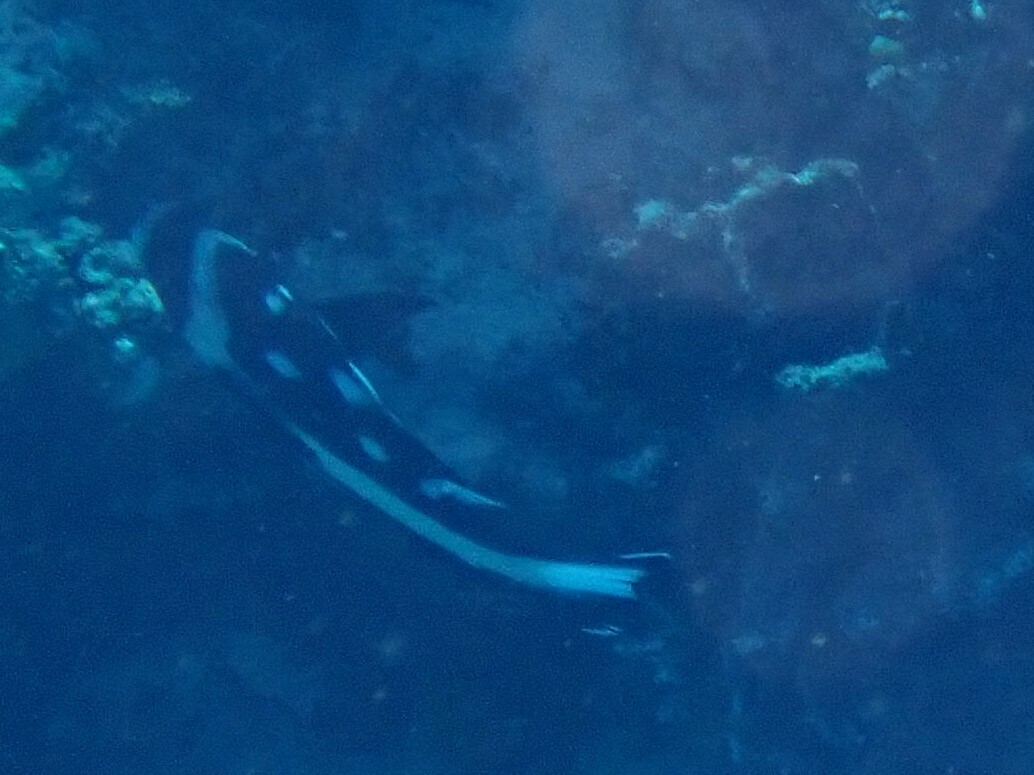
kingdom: Animalia
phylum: Chordata
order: Perciformes
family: Lutjanidae
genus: Macolor
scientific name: Macolor niger
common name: Black snapper
